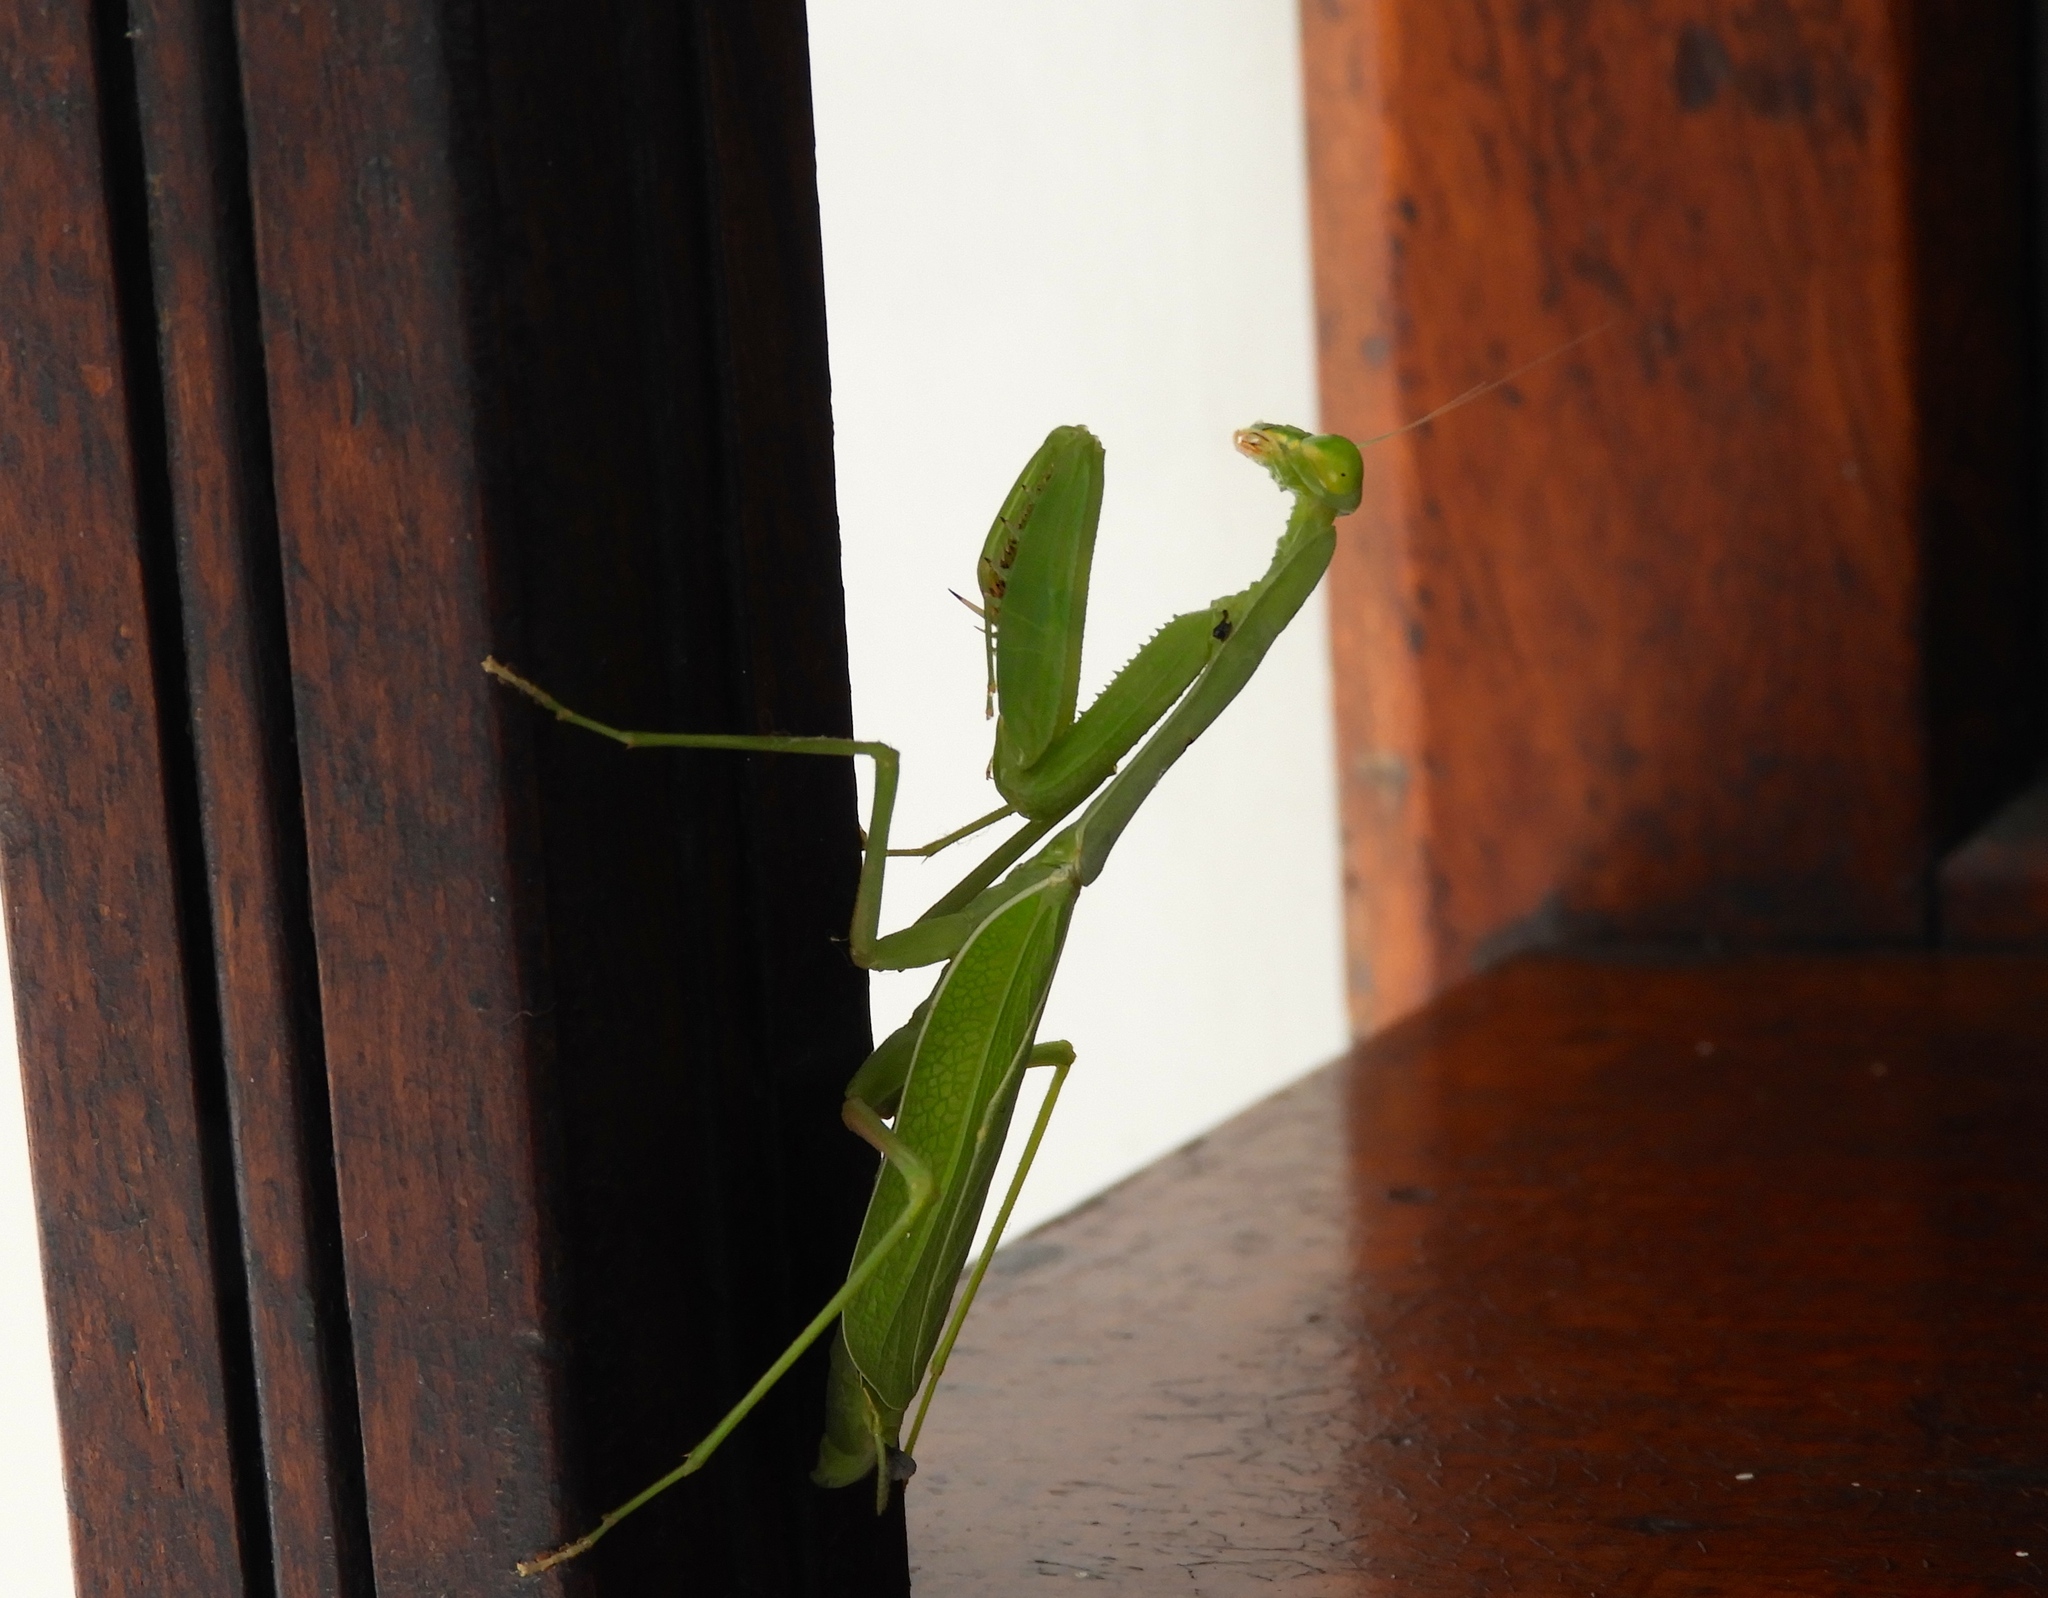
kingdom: Animalia
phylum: Arthropoda
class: Insecta
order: Mantodea
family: Mantidae
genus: Stagmomantis
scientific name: Stagmomantis limbata
